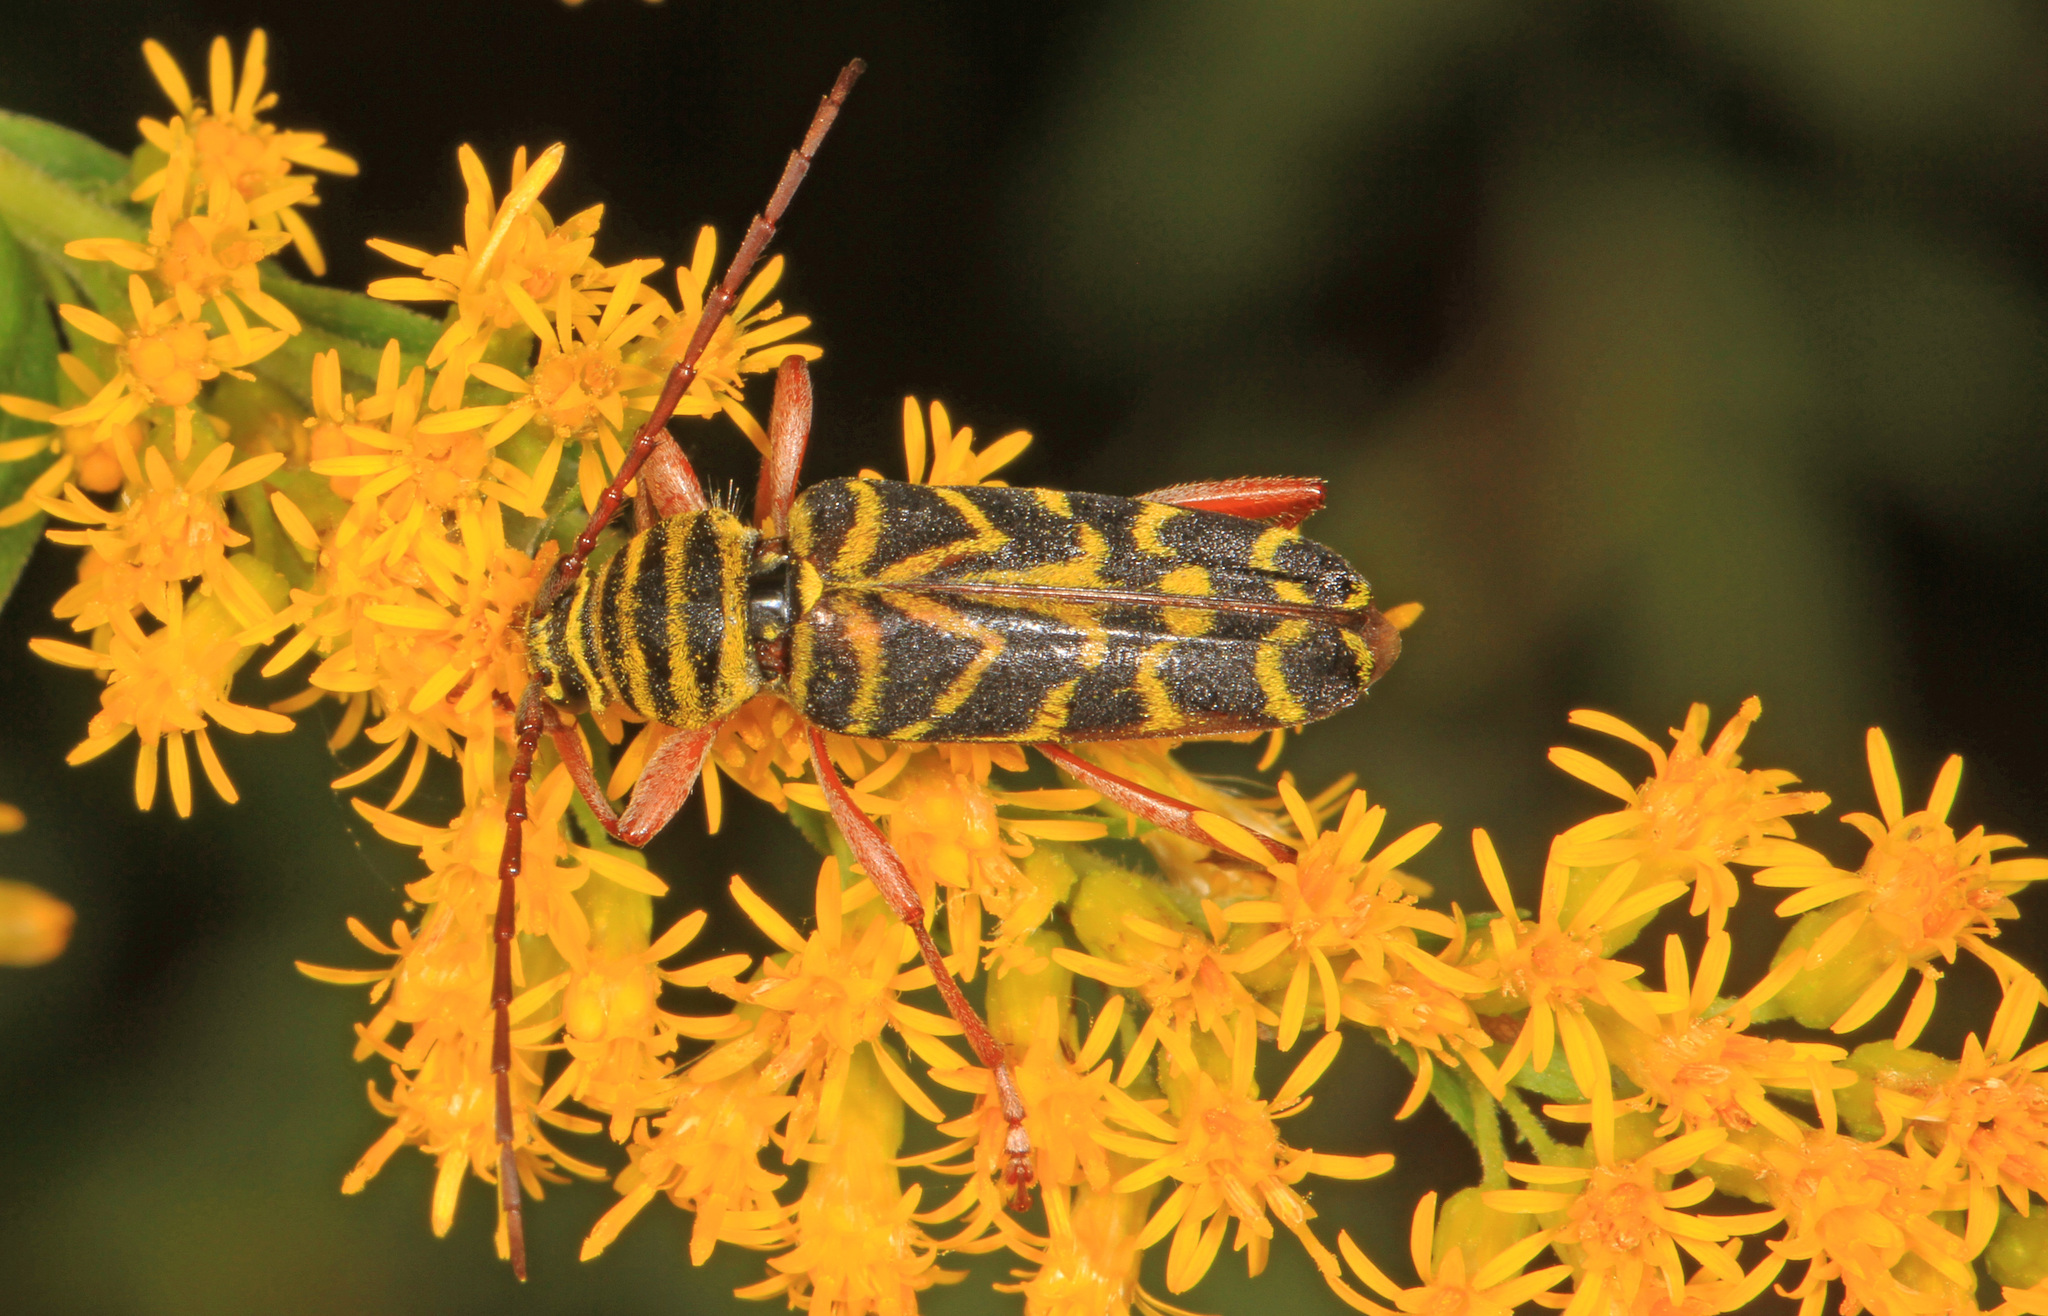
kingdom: Animalia
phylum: Arthropoda
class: Insecta
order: Coleoptera
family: Cerambycidae
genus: Megacyllene
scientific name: Megacyllene robiniae
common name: Locust borer
